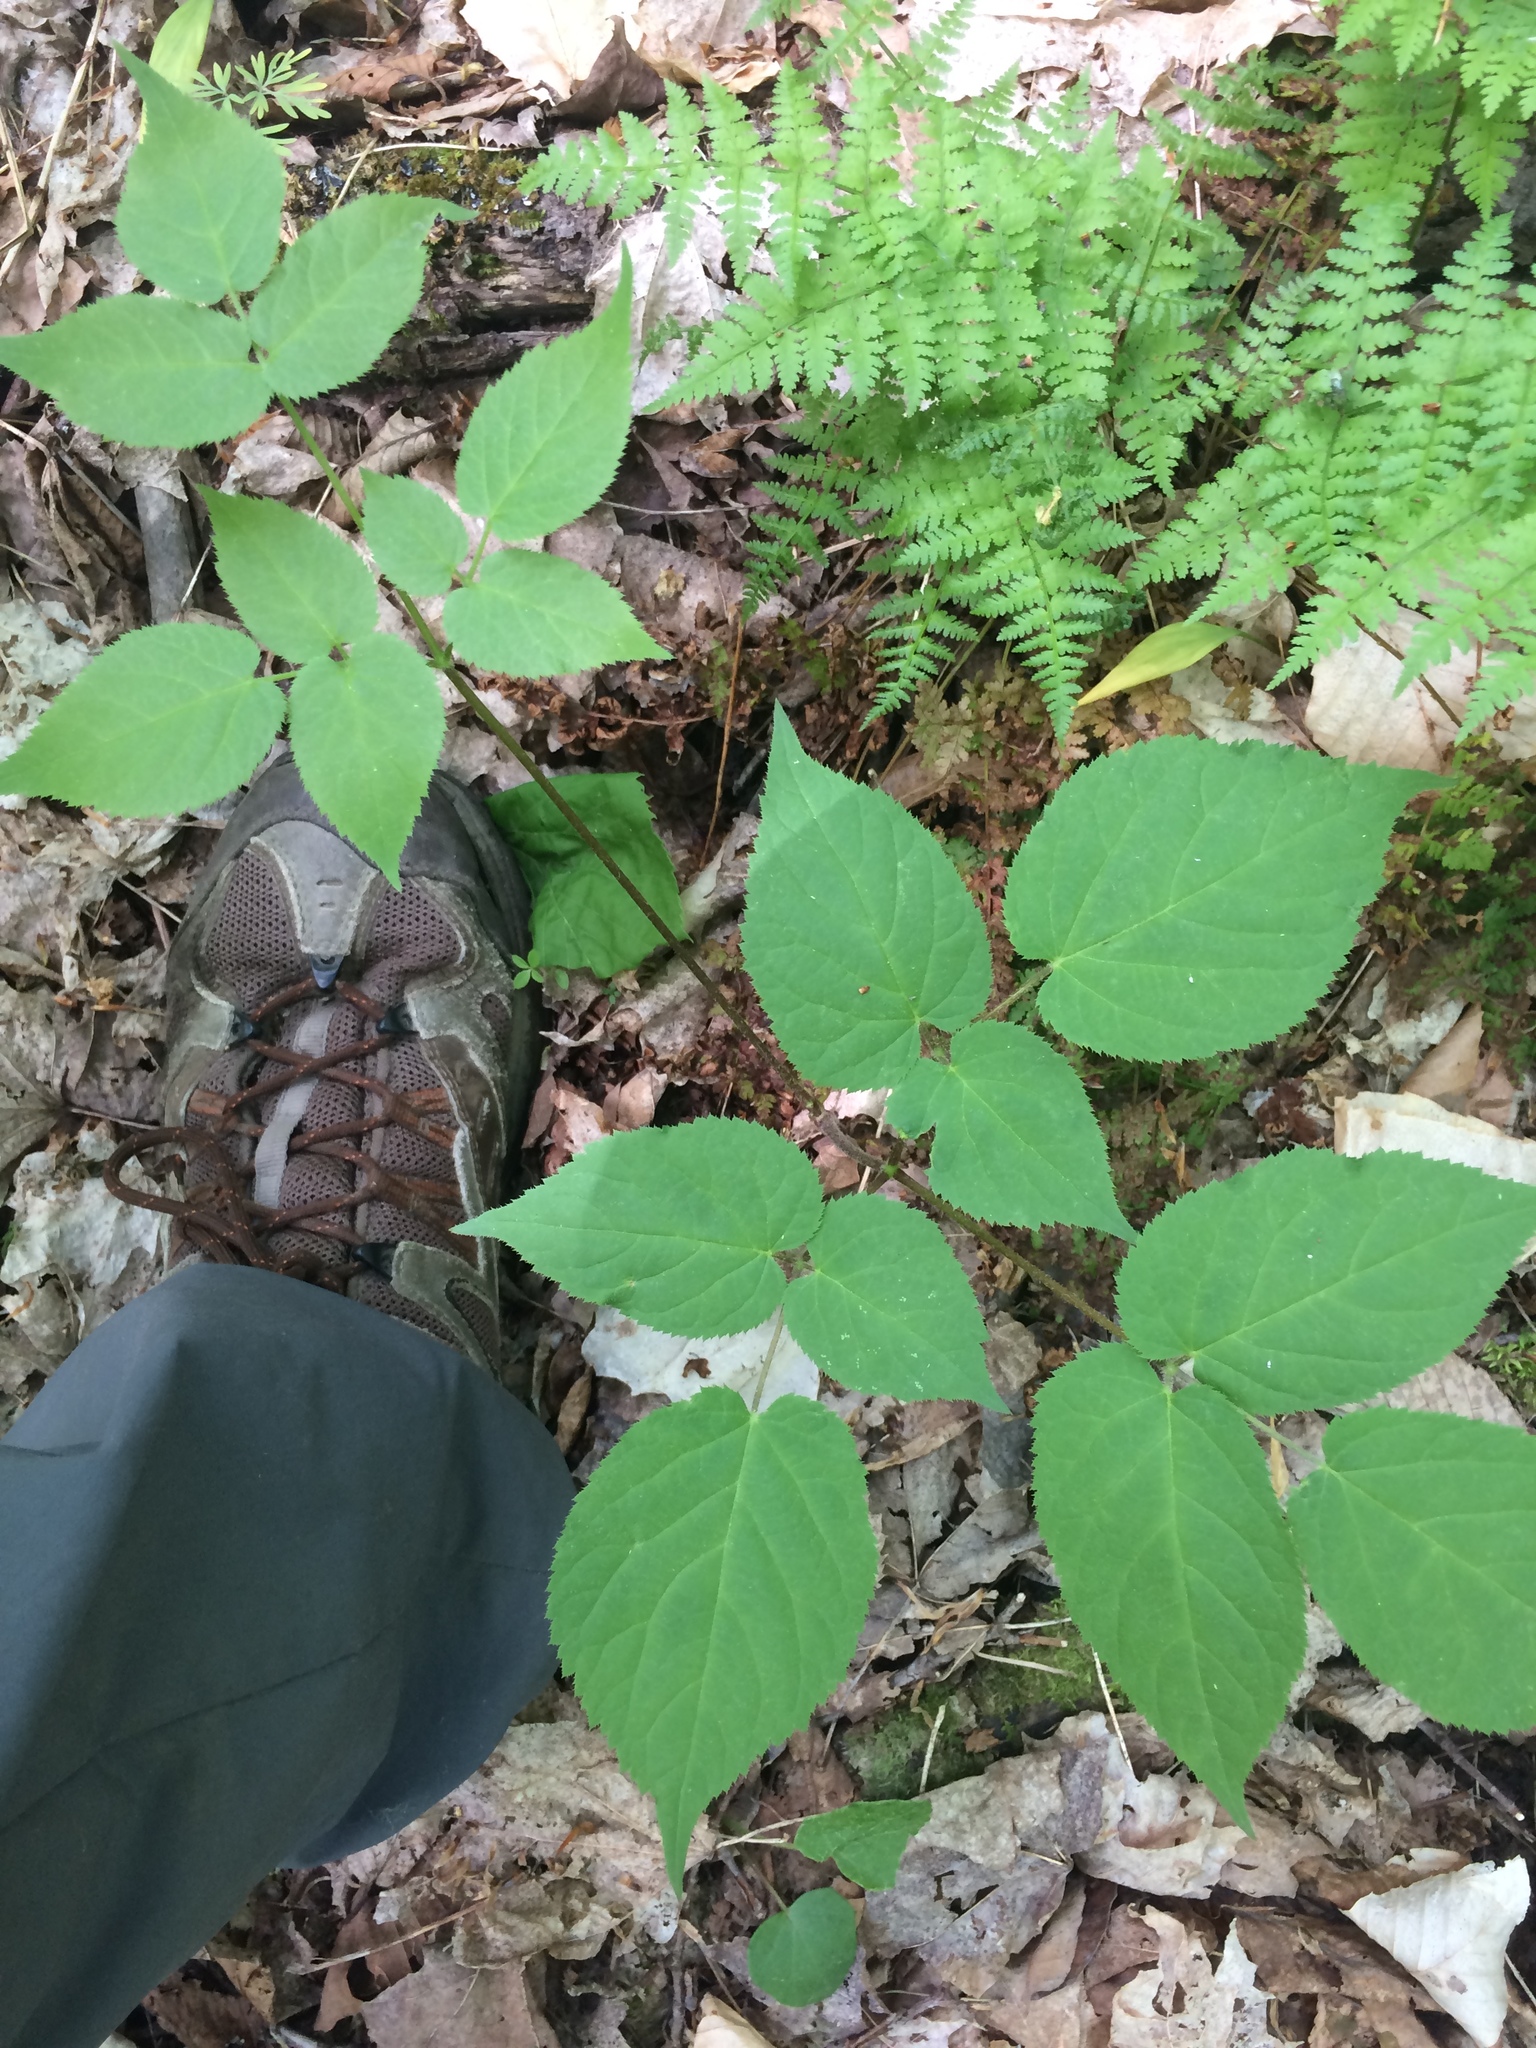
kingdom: Plantae
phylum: Tracheophyta
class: Magnoliopsida
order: Apiales
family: Araliaceae
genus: Aralia
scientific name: Aralia racemosa
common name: American-spikenard
